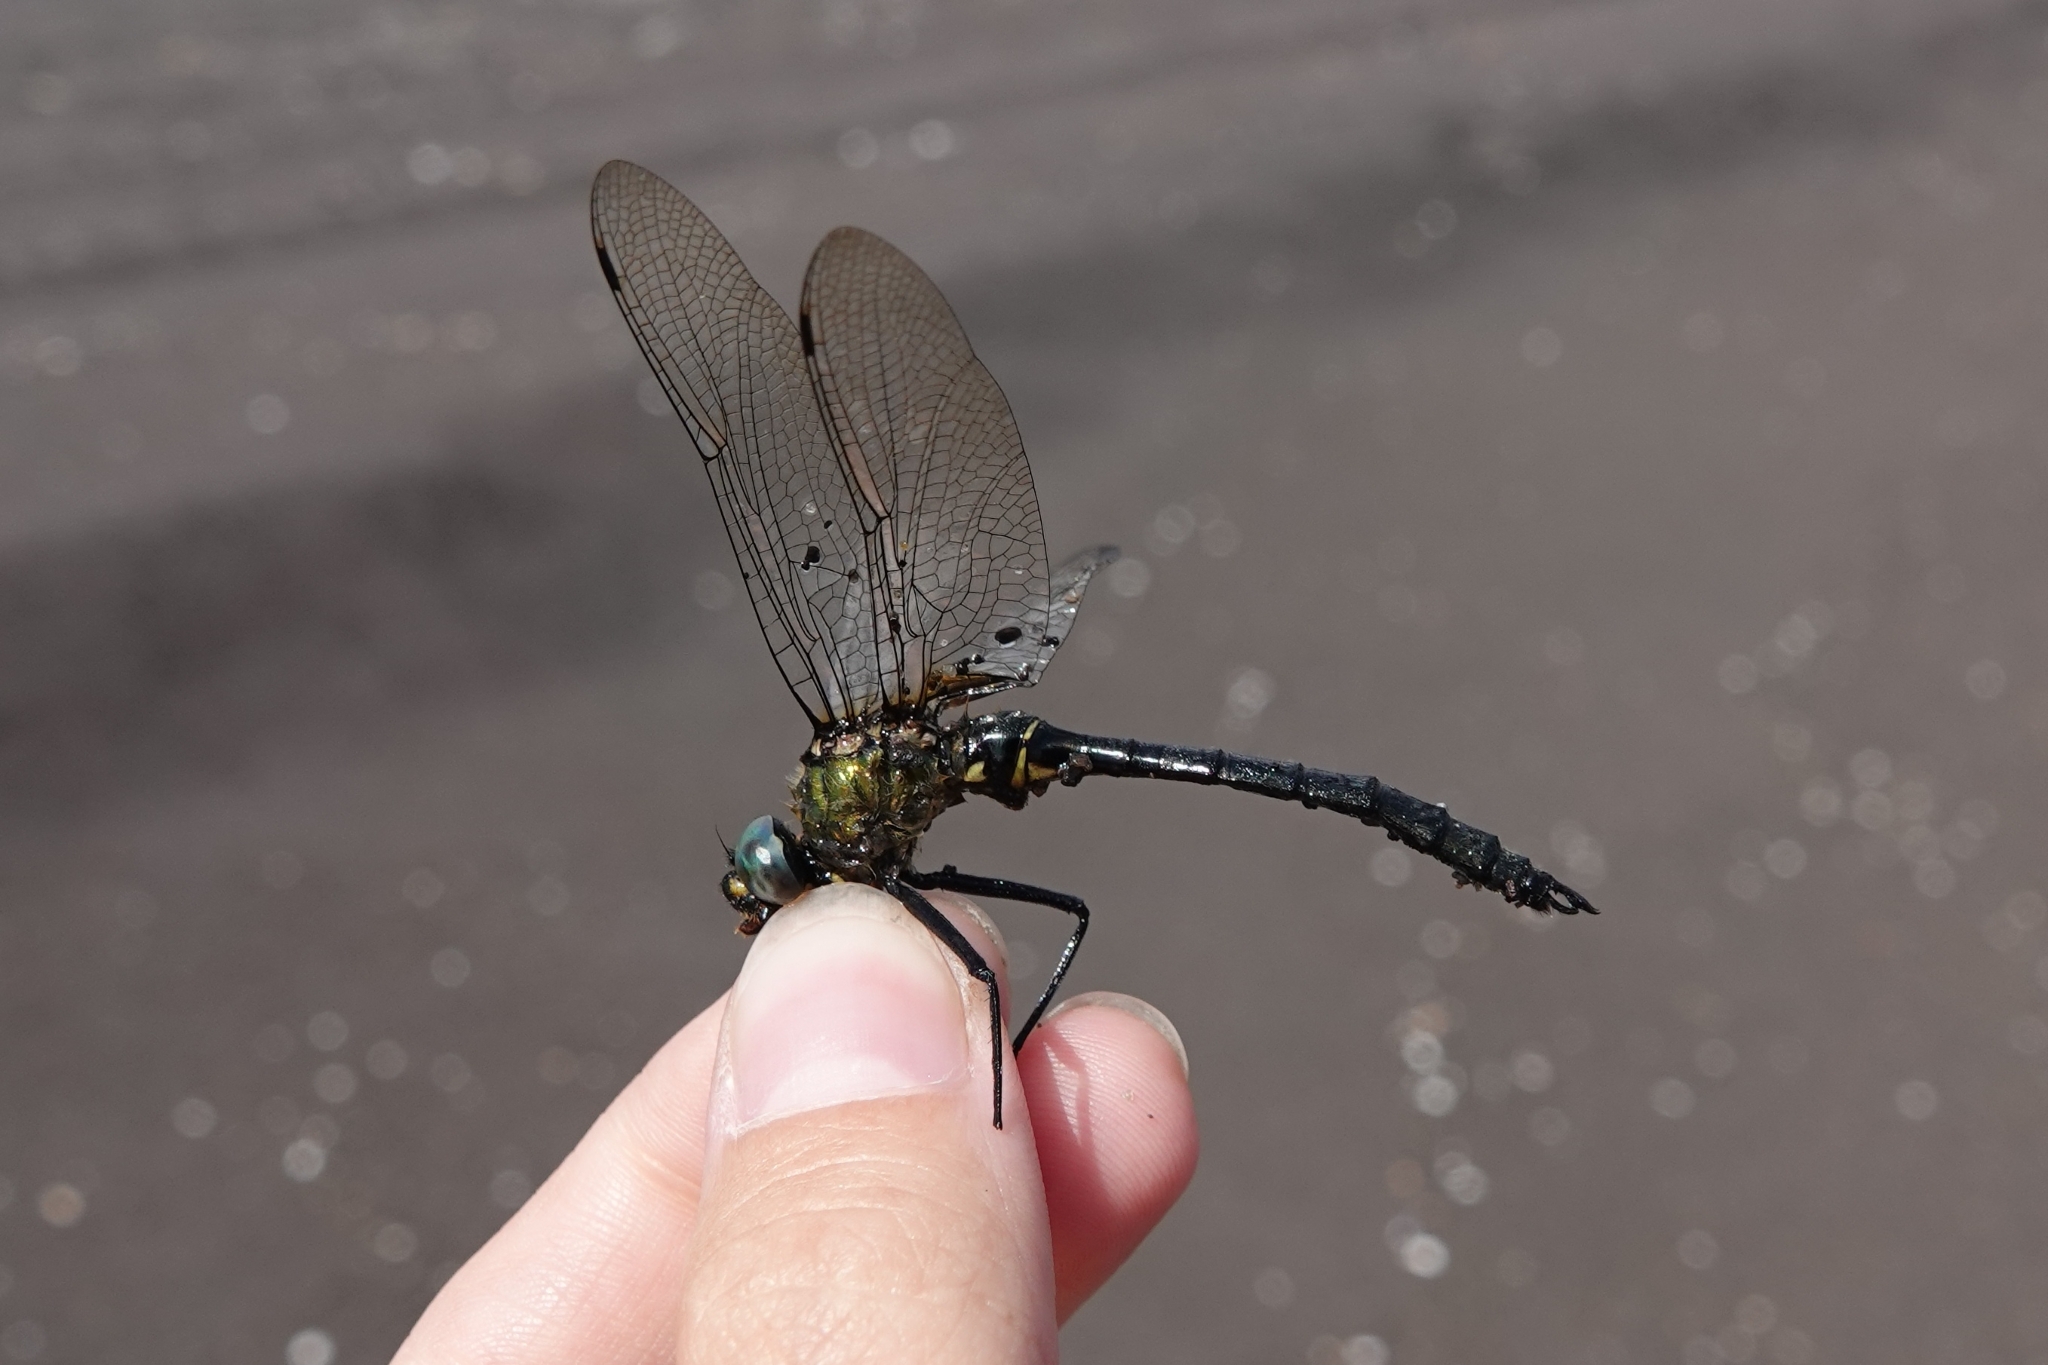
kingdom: Animalia
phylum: Arthropoda
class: Insecta
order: Odonata
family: Corduliidae
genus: Somatochlora
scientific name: Somatochlora graeseri
